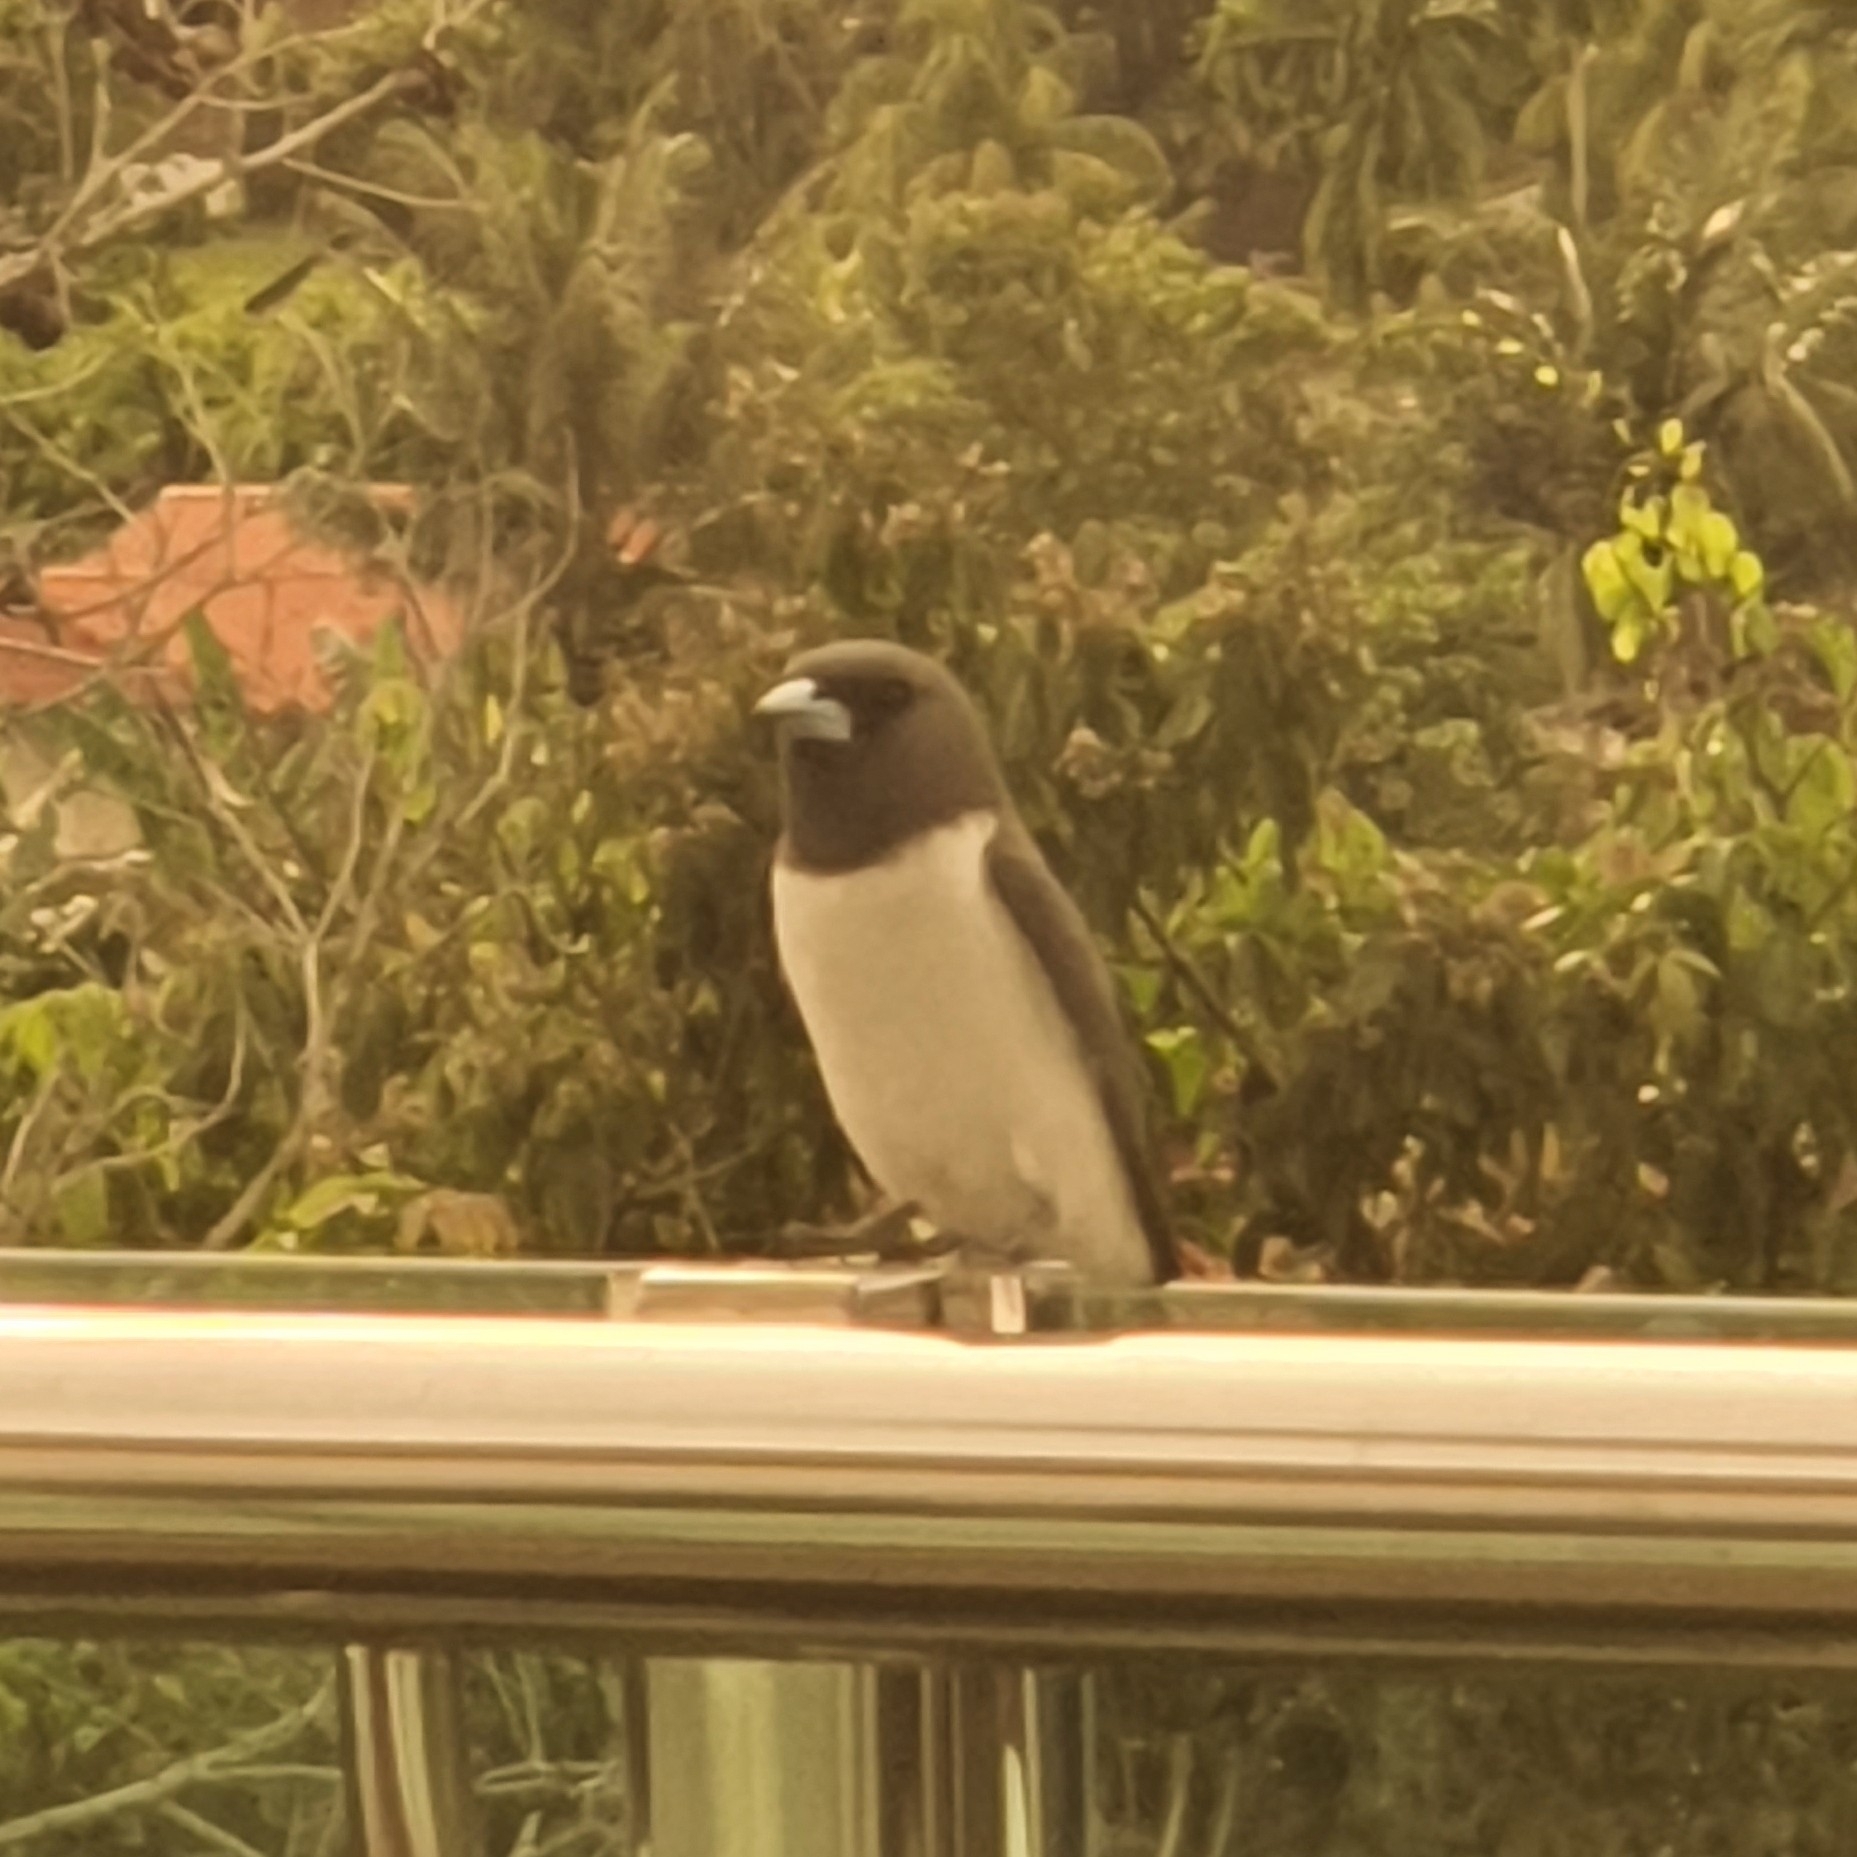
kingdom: Animalia
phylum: Chordata
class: Aves
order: Passeriformes
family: Artamidae
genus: Artamus
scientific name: Artamus leucoryn
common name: White-breasted woodswallow
